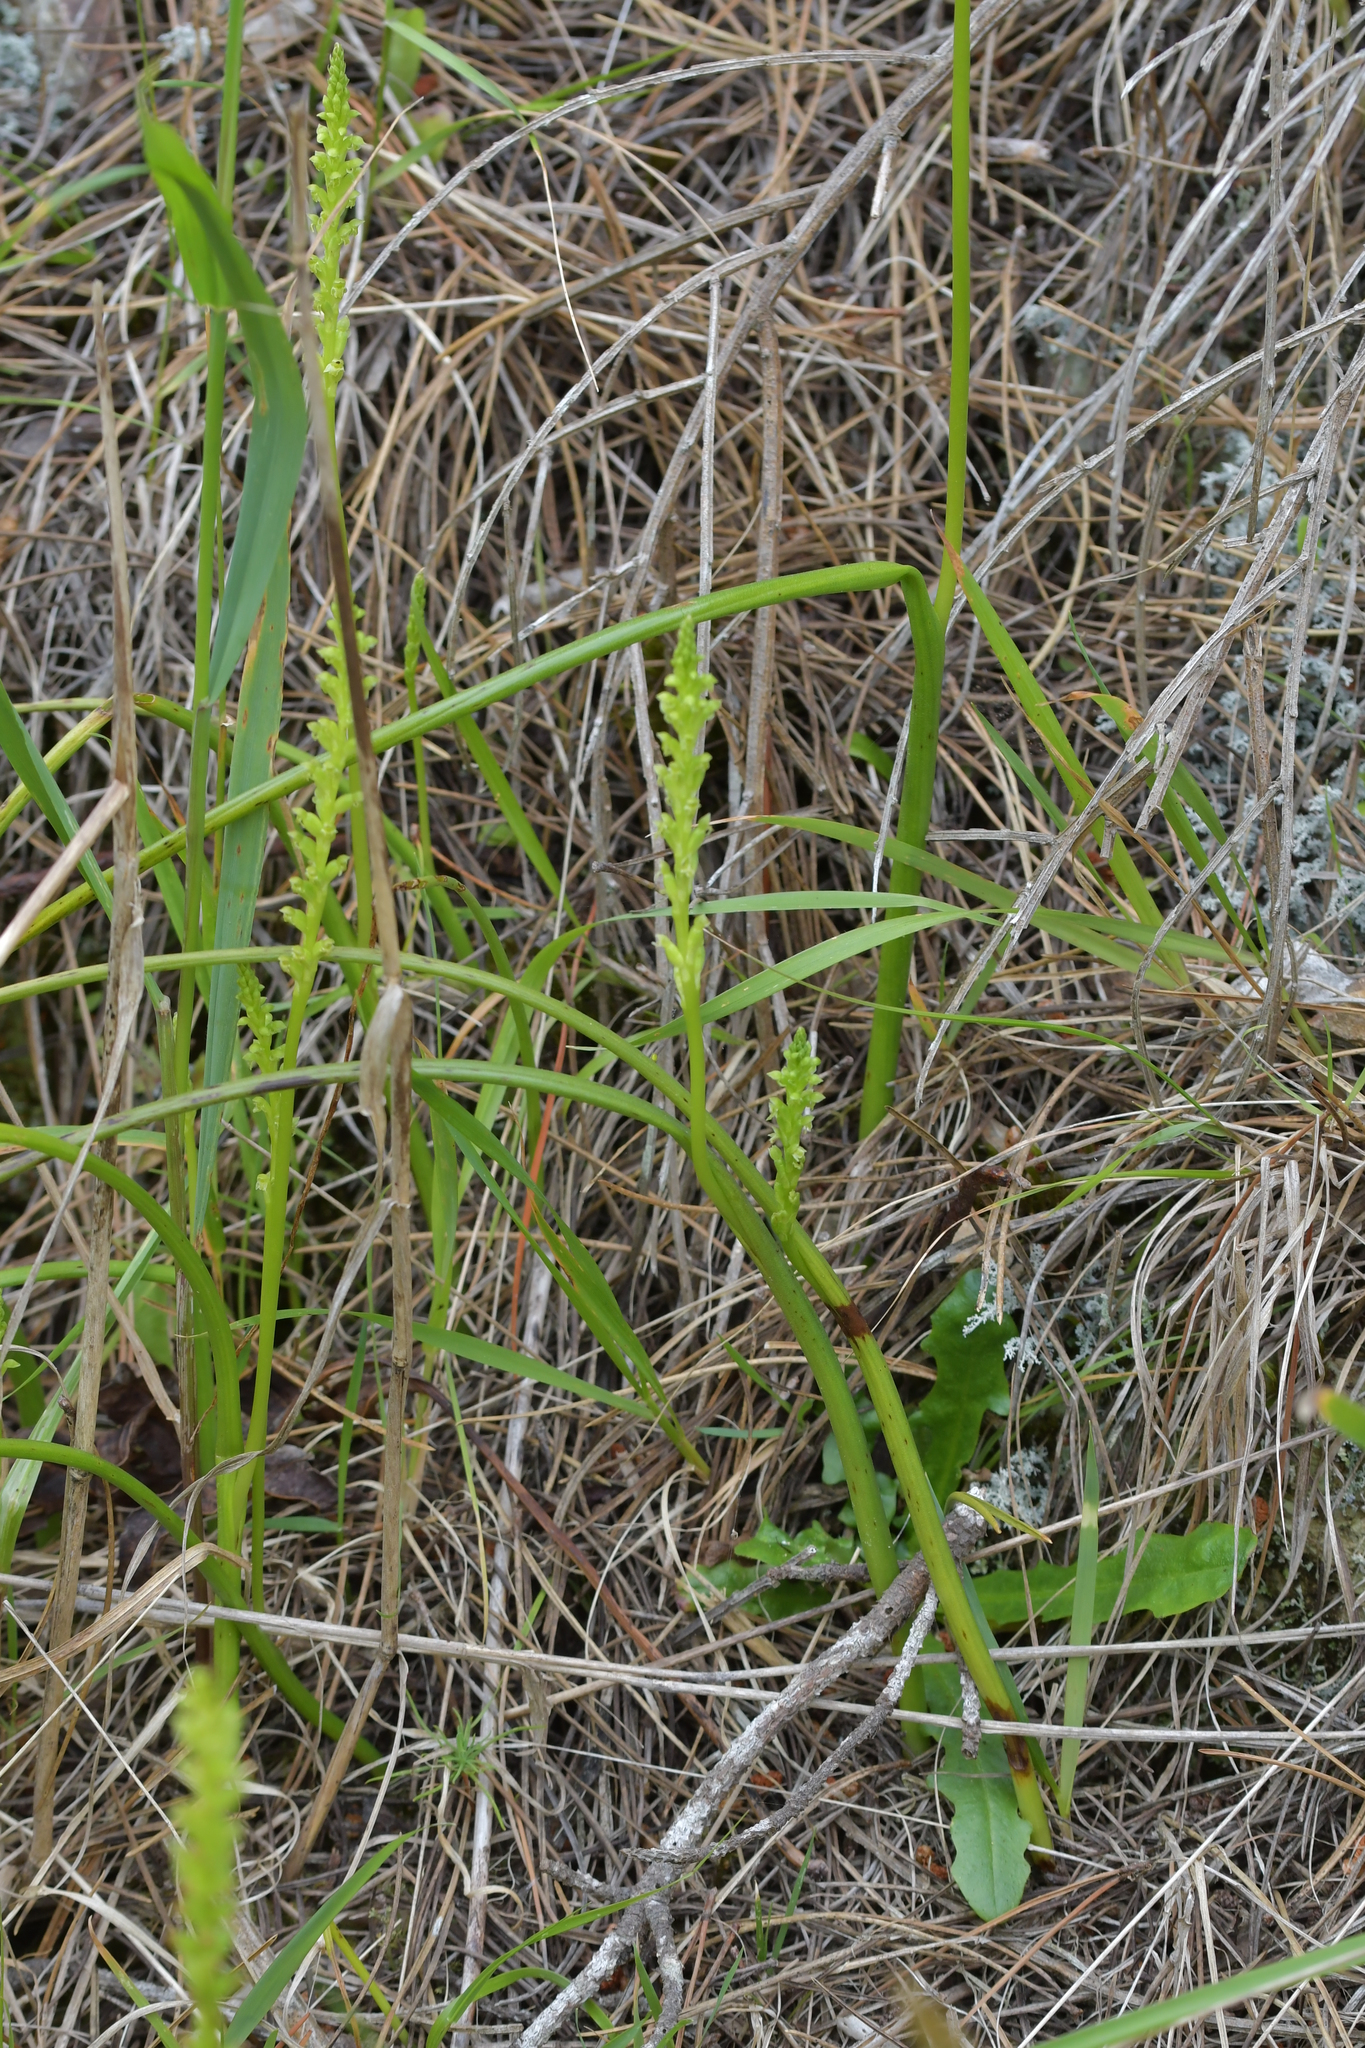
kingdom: Plantae
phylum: Tracheophyta
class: Liliopsida
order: Asparagales
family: Orchidaceae
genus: Microtis
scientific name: Microtis unifolia
